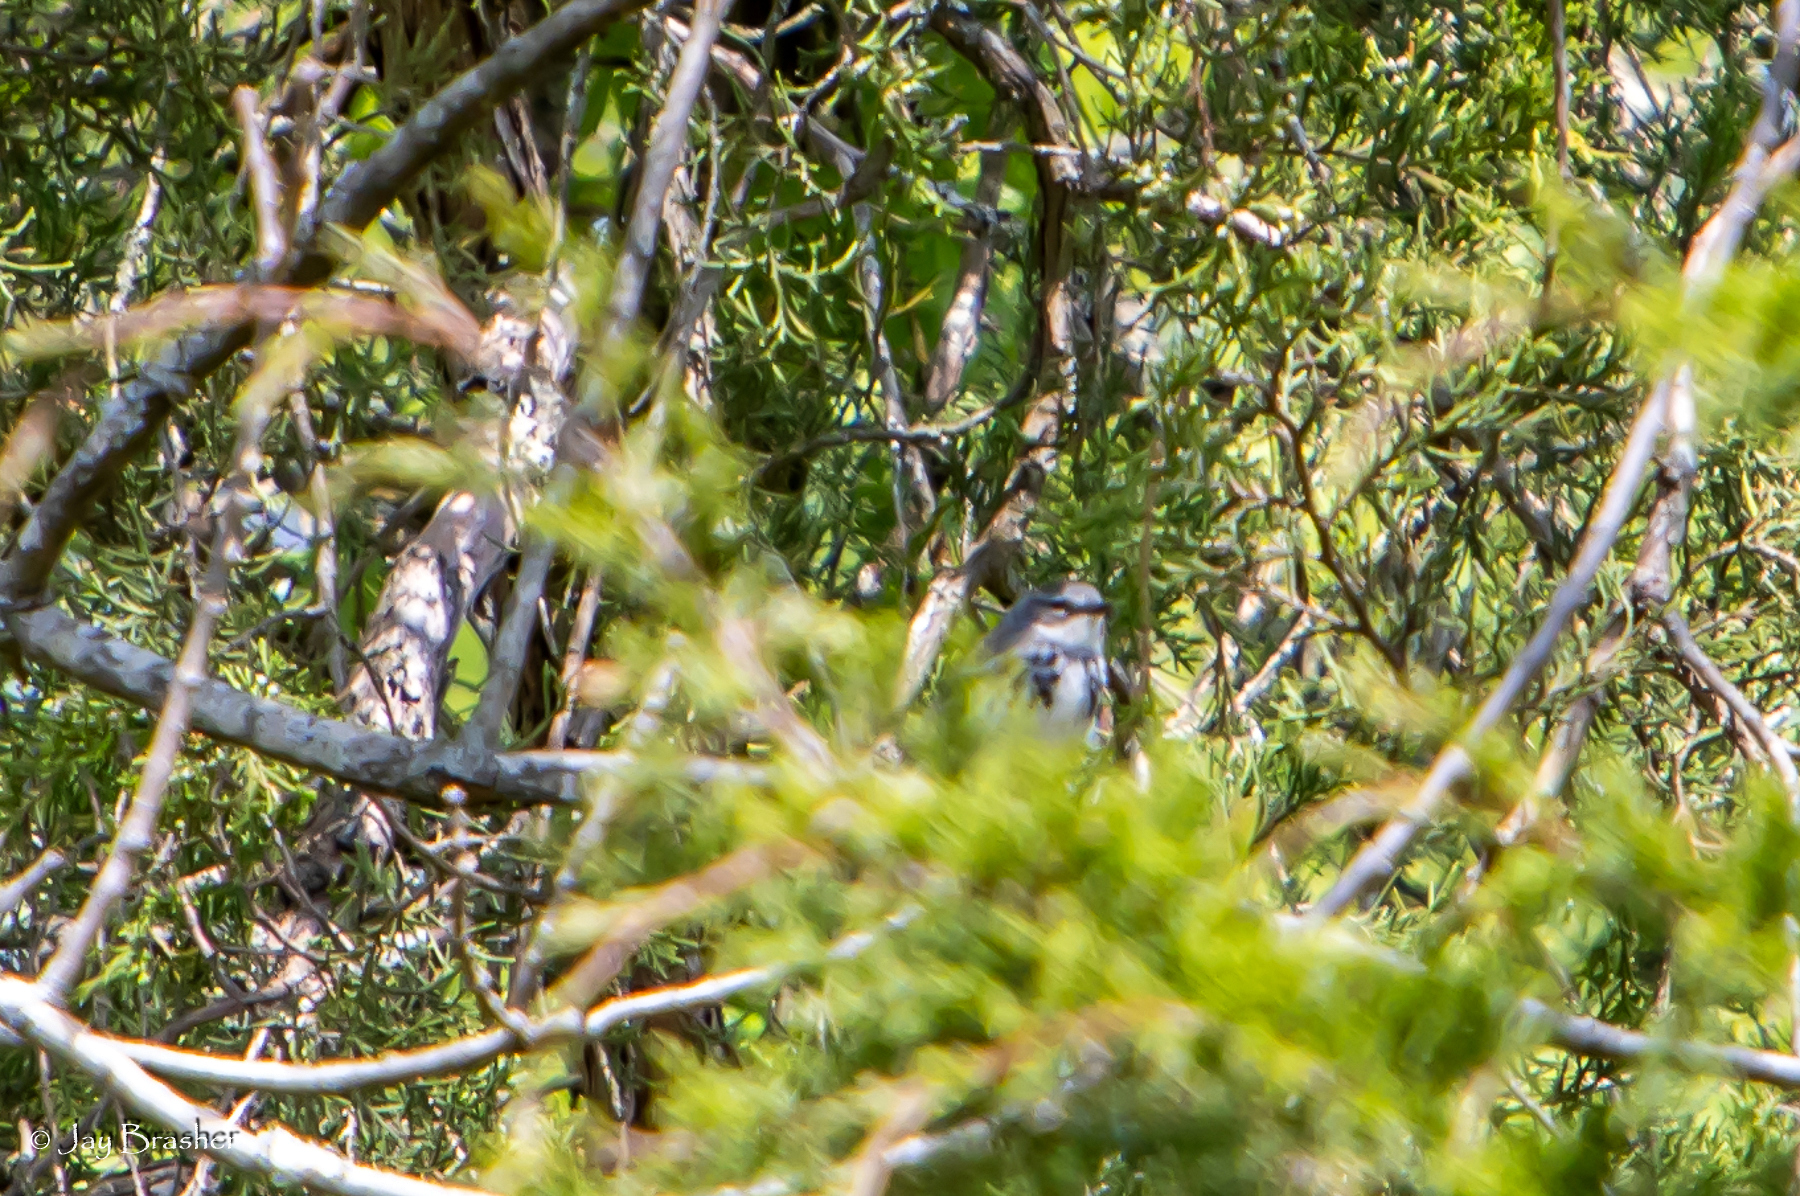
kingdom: Animalia
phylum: Chordata
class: Aves
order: Passeriformes
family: Parulidae
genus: Setophaga
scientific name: Setophaga coronata
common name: Myrtle warbler
